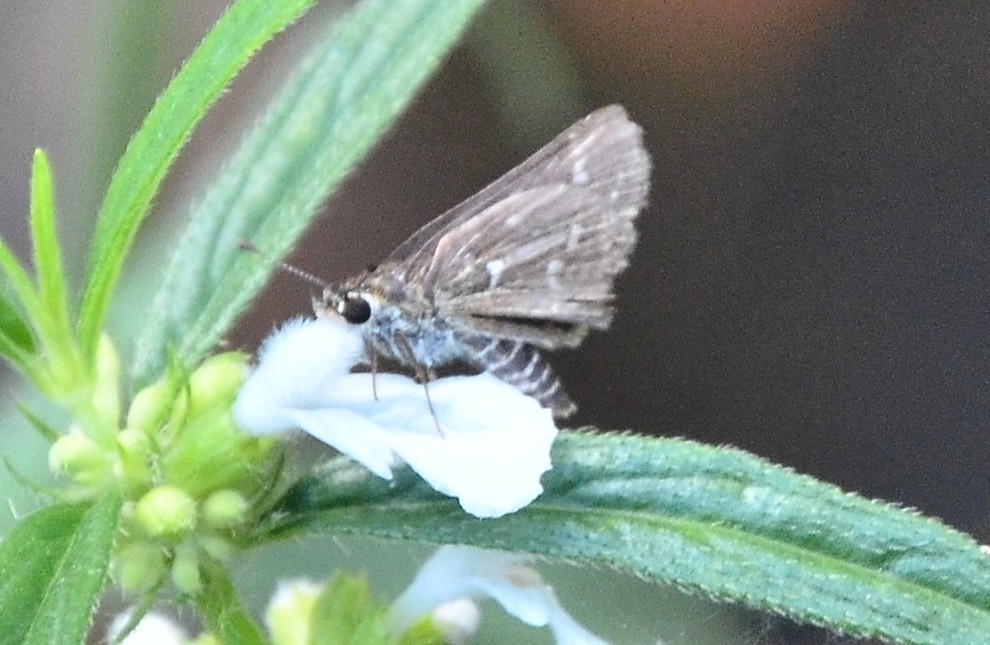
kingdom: Animalia
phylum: Arthropoda
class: Insecta
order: Lepidoptera
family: Hesperiidae
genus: Taractrocera
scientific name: Taractrocera maevius
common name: Common grass-dart
